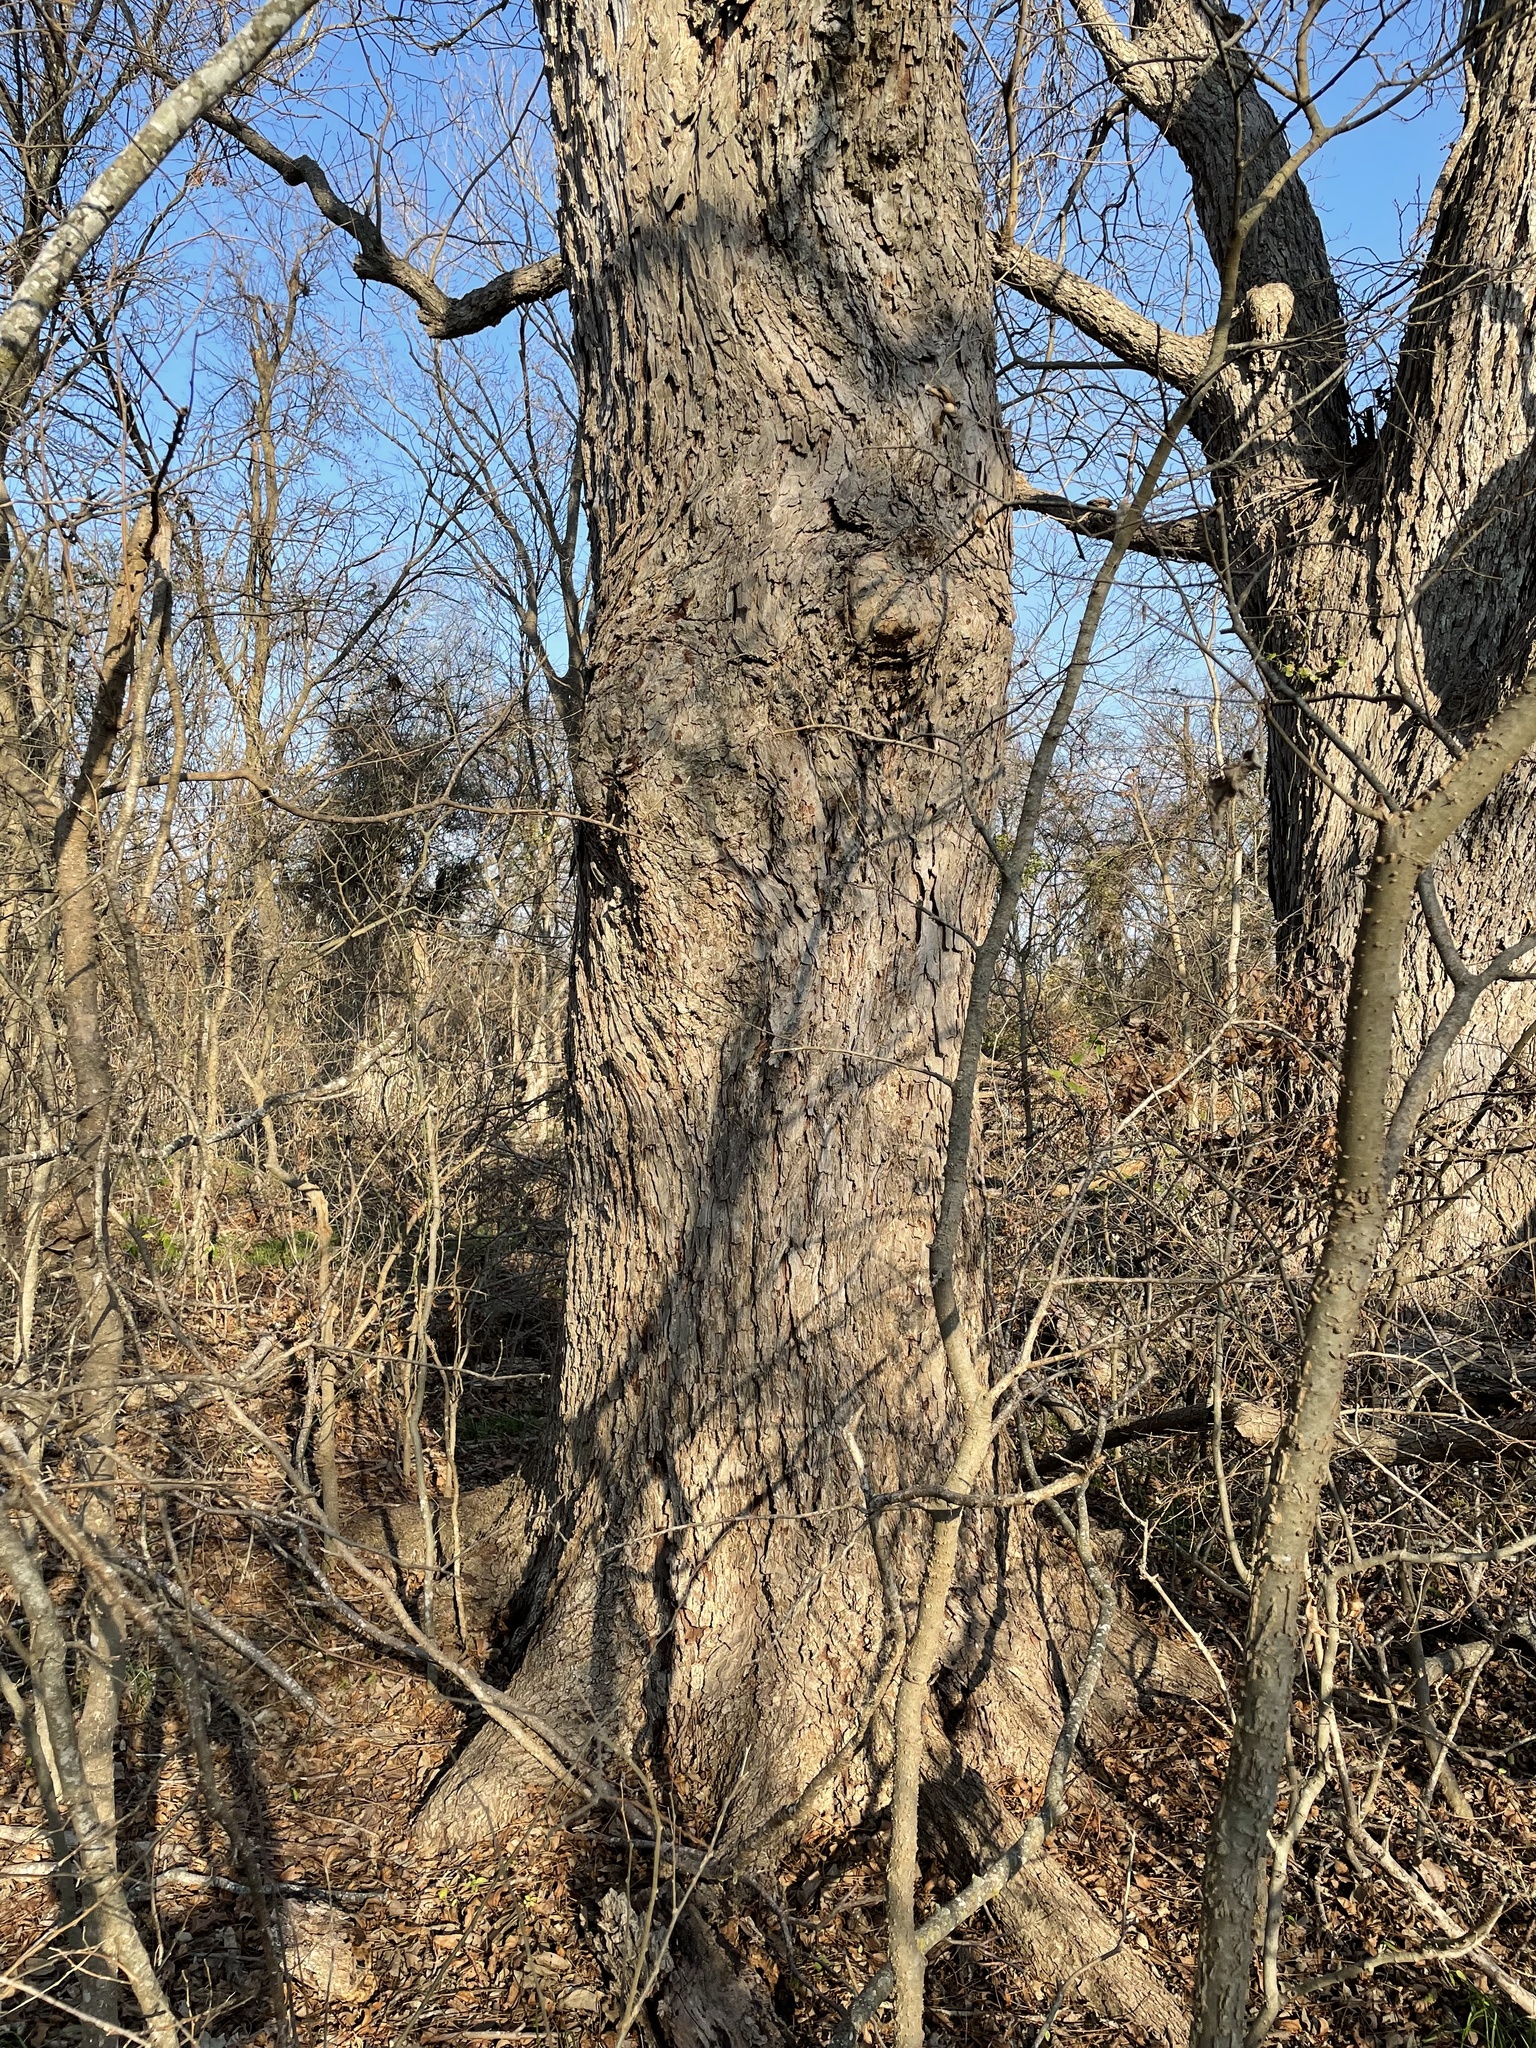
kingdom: Plantae
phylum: Tracheophyta
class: Magnoliopsida
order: Fagales
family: Juglandaceae
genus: Carya
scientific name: Carya illinoinensis
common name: Pecan
